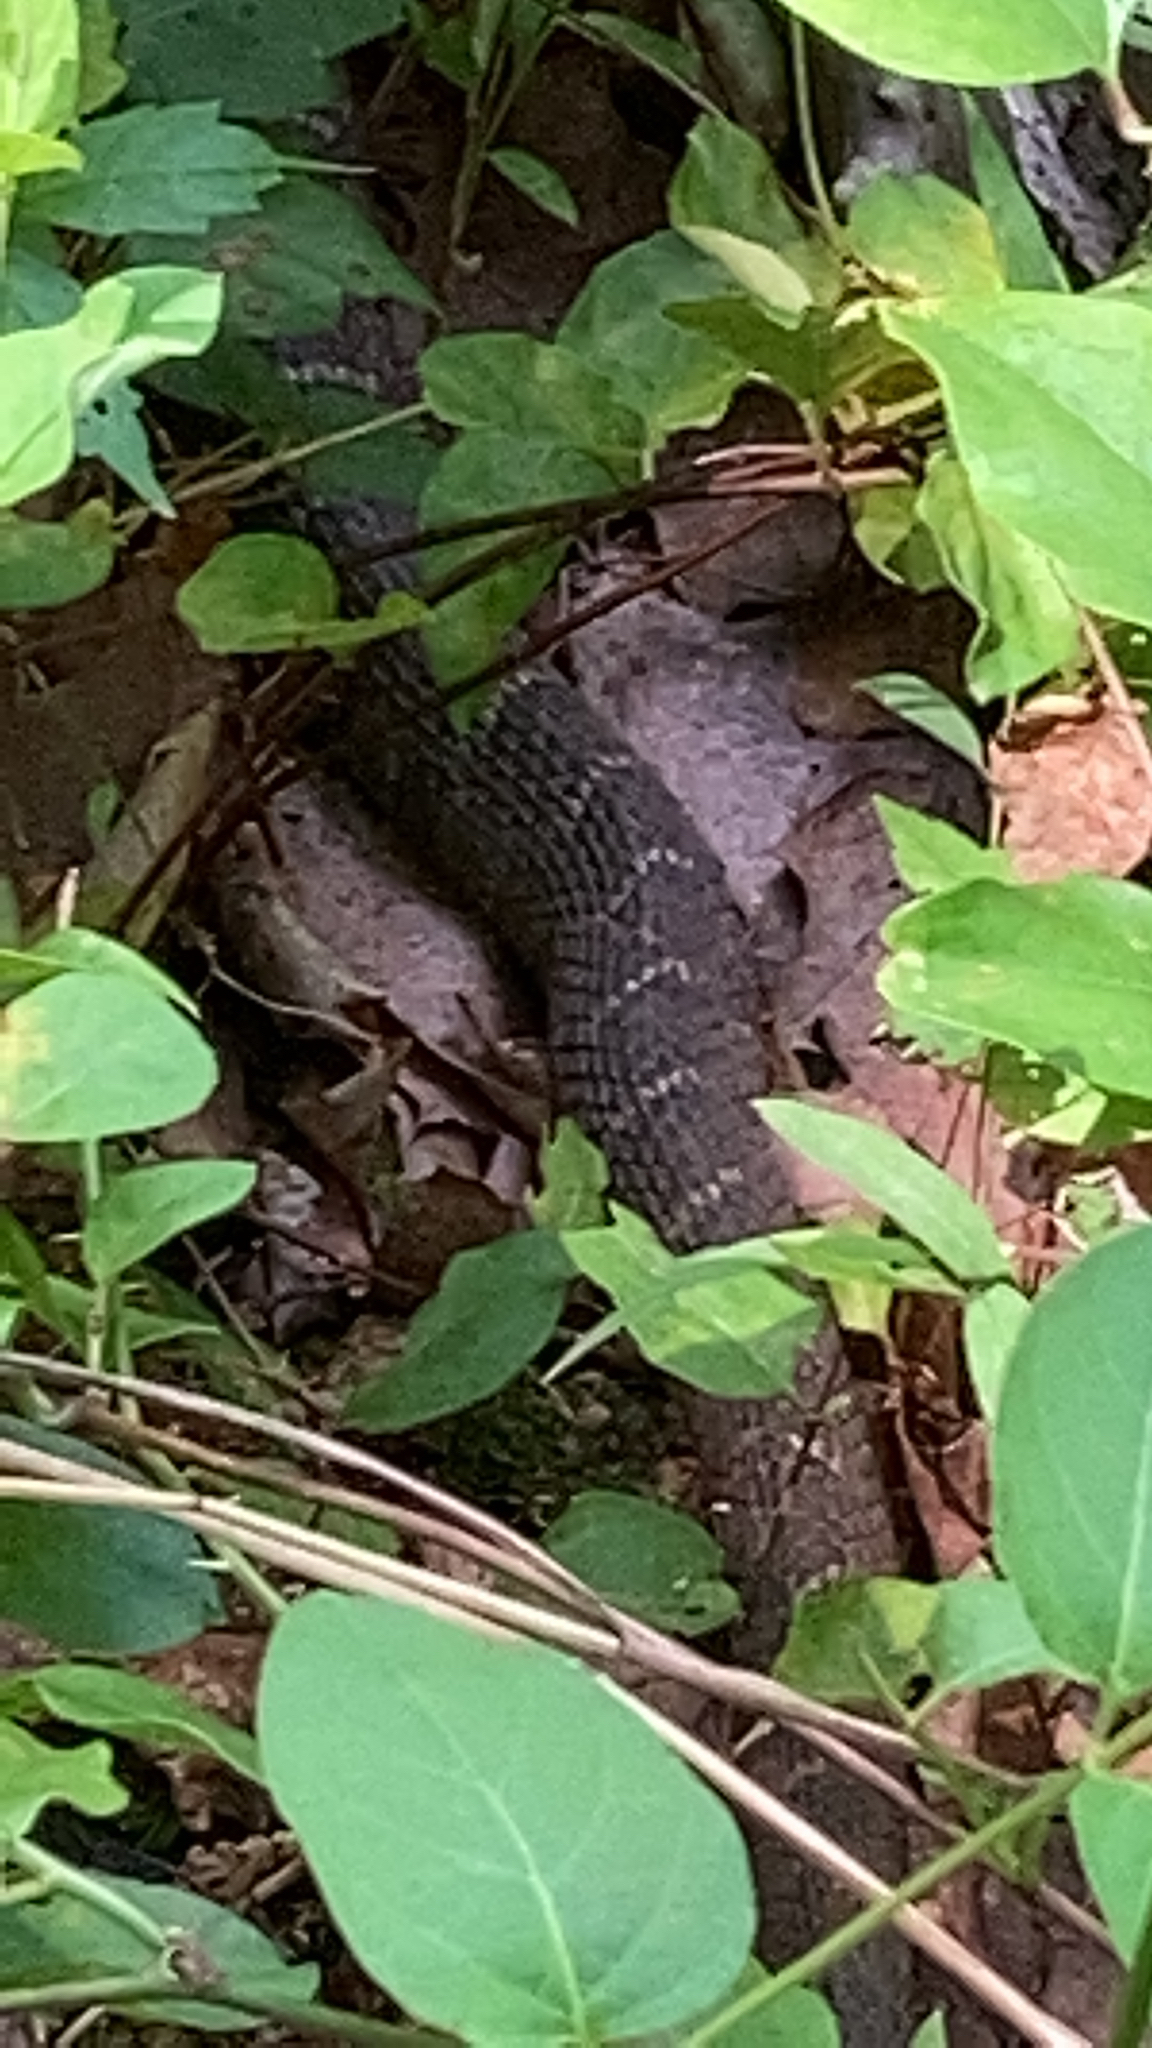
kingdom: Animalia
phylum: Chordata
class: Squamata
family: Colubridae
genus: Nerodia
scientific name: Nerodia sipedon
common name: Northern water snake
